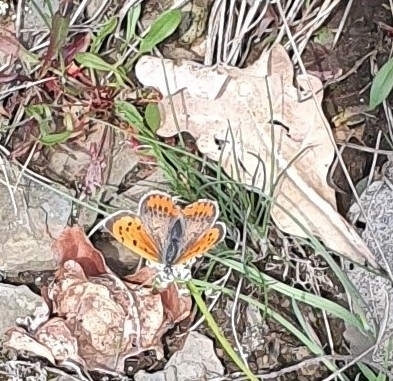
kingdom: Animalia
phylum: Arthropoda
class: Insecta
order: Lepidoptera
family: Lycaenidae
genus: Lycaena
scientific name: Lycaena phlaeas
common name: Small copper
